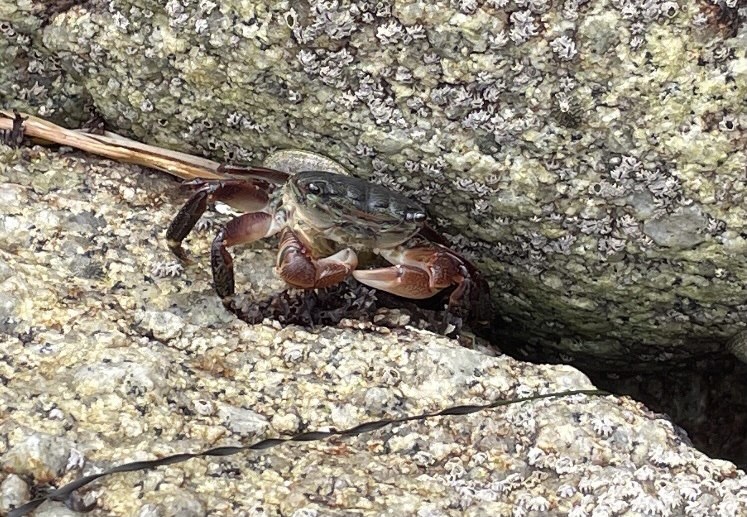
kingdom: Animalia
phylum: Arthropoda
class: Malacostraca
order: Decapoda
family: Grapsidae
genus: Pachygrapsus
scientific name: Pachygrapsus crassipes
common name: Striped shore crab
